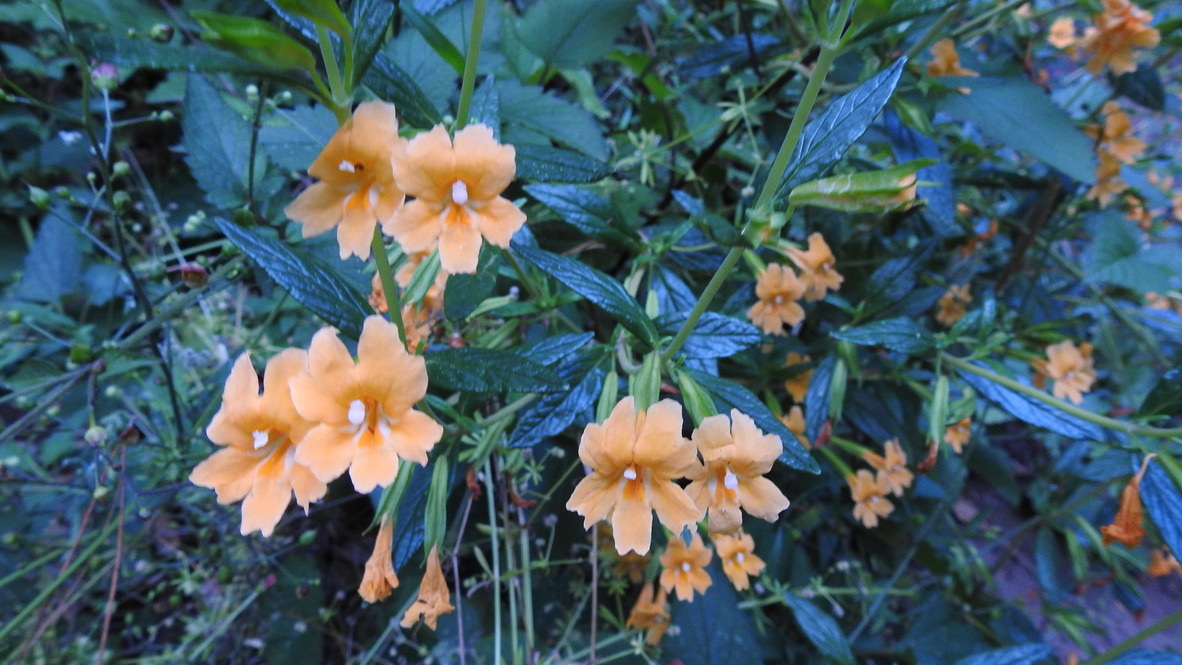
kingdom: Plantae
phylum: Tracheophyta
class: Magnoliopsida
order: Lamiales
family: Phrymaceae
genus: Diplacus
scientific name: Diplacus aurantiacus
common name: Bush monkey-flower
